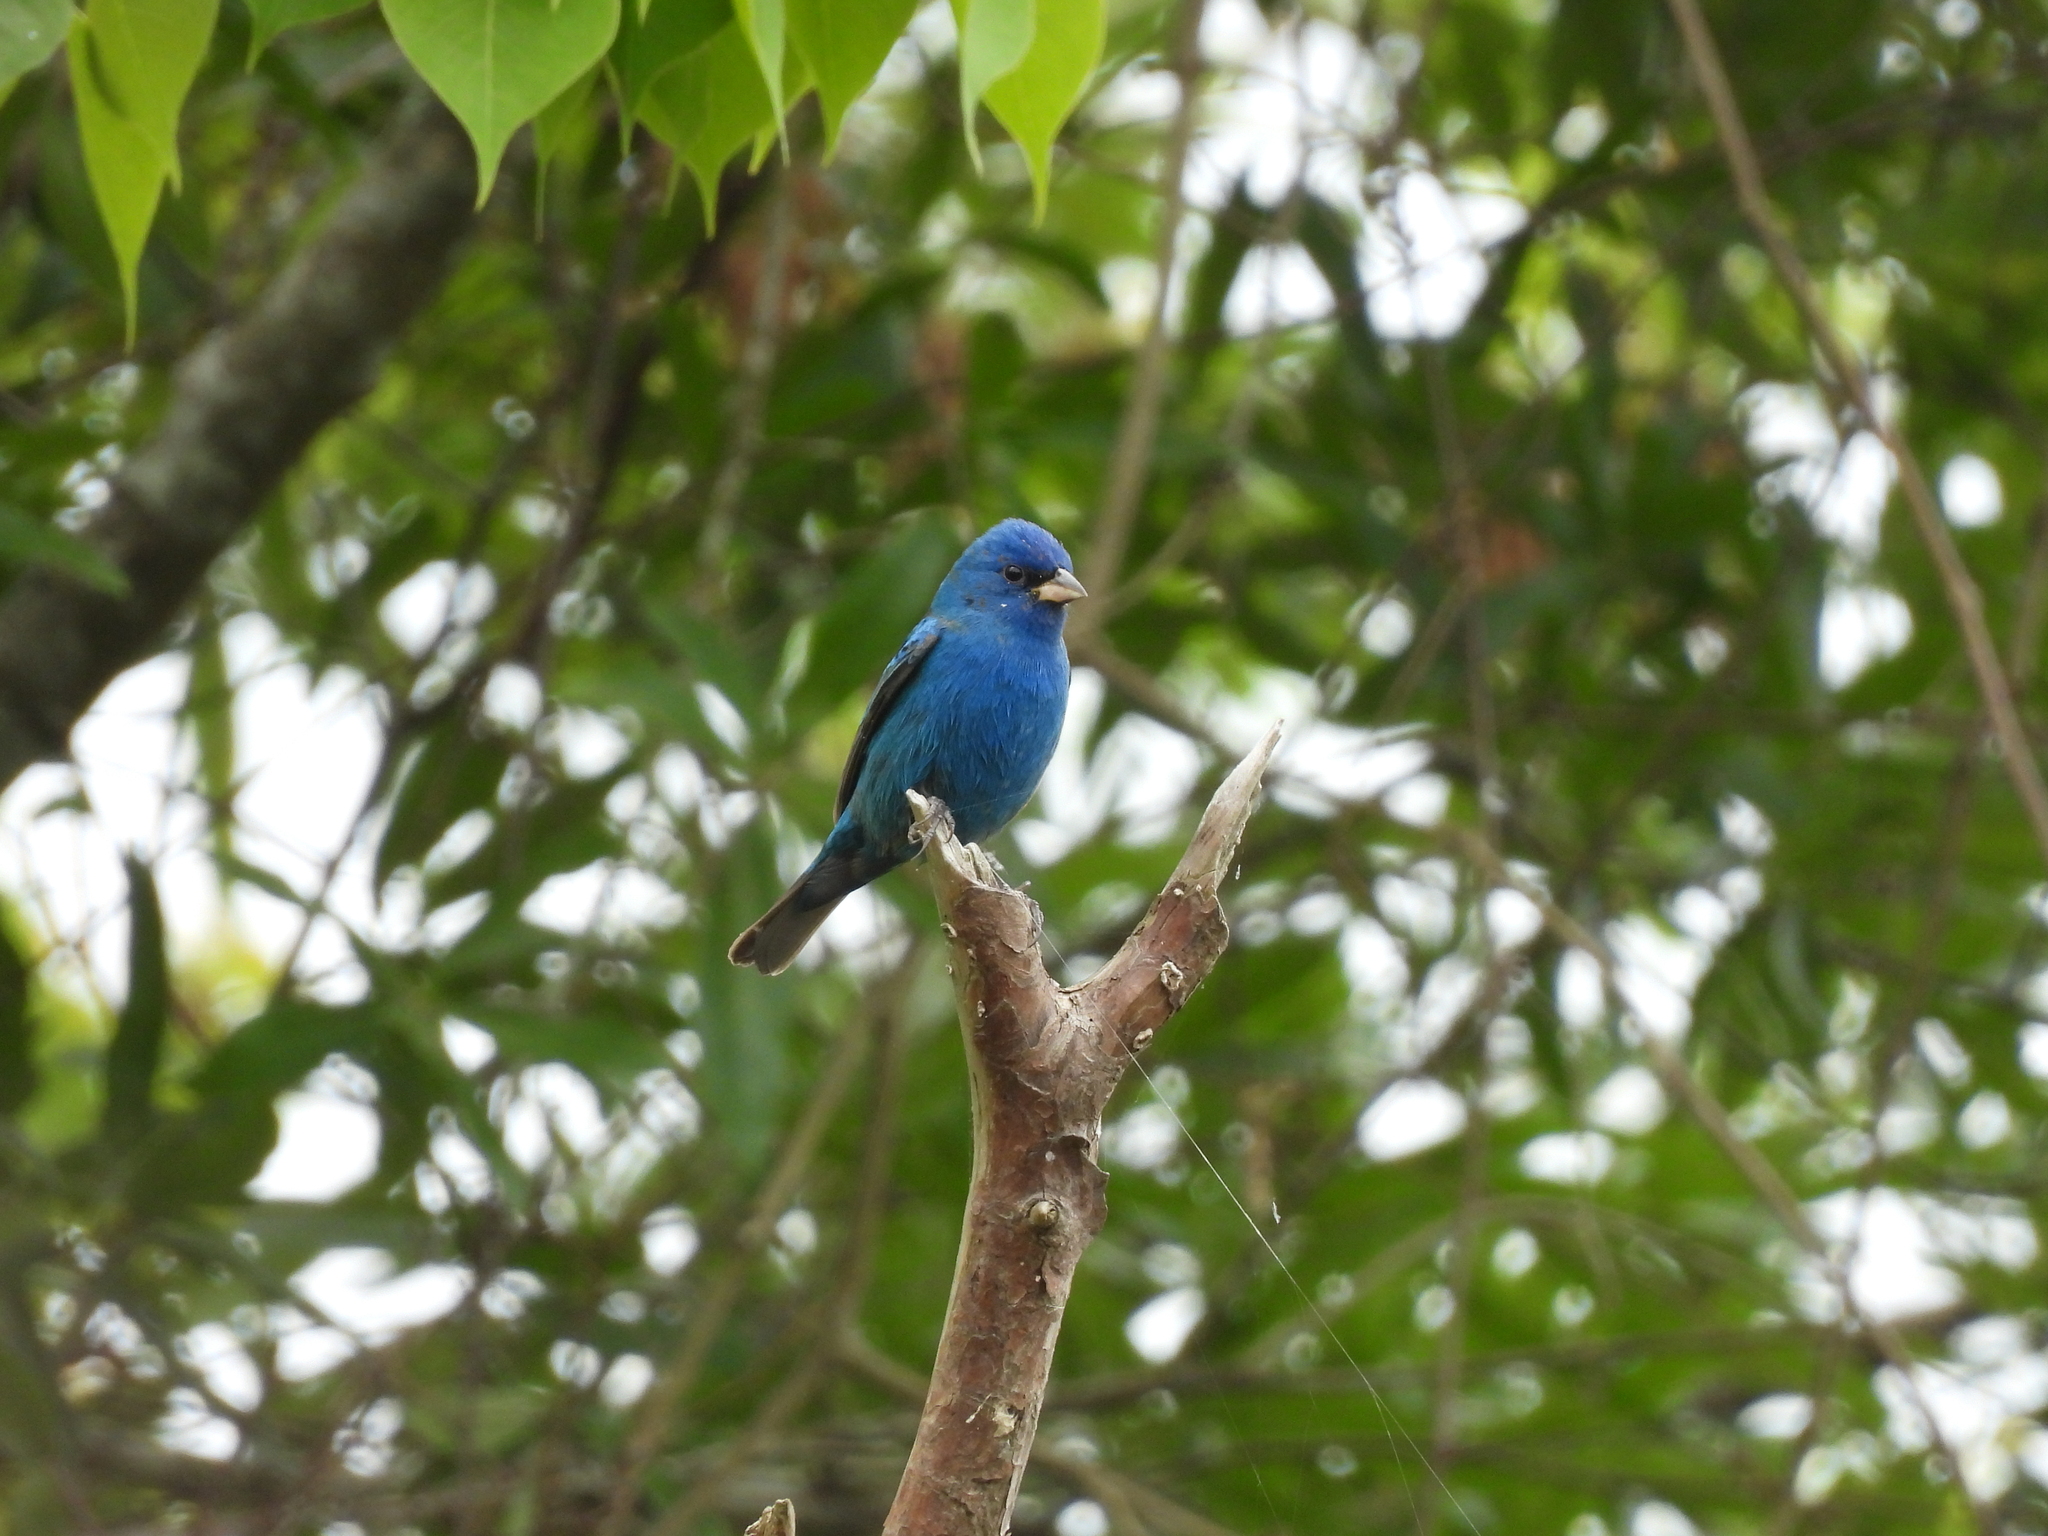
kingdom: Animalia
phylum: Chordata
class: Aves
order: Passeriformes
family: Cardinalidae
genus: Passerina
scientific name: Passerina cyanea
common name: Indigo bunting
